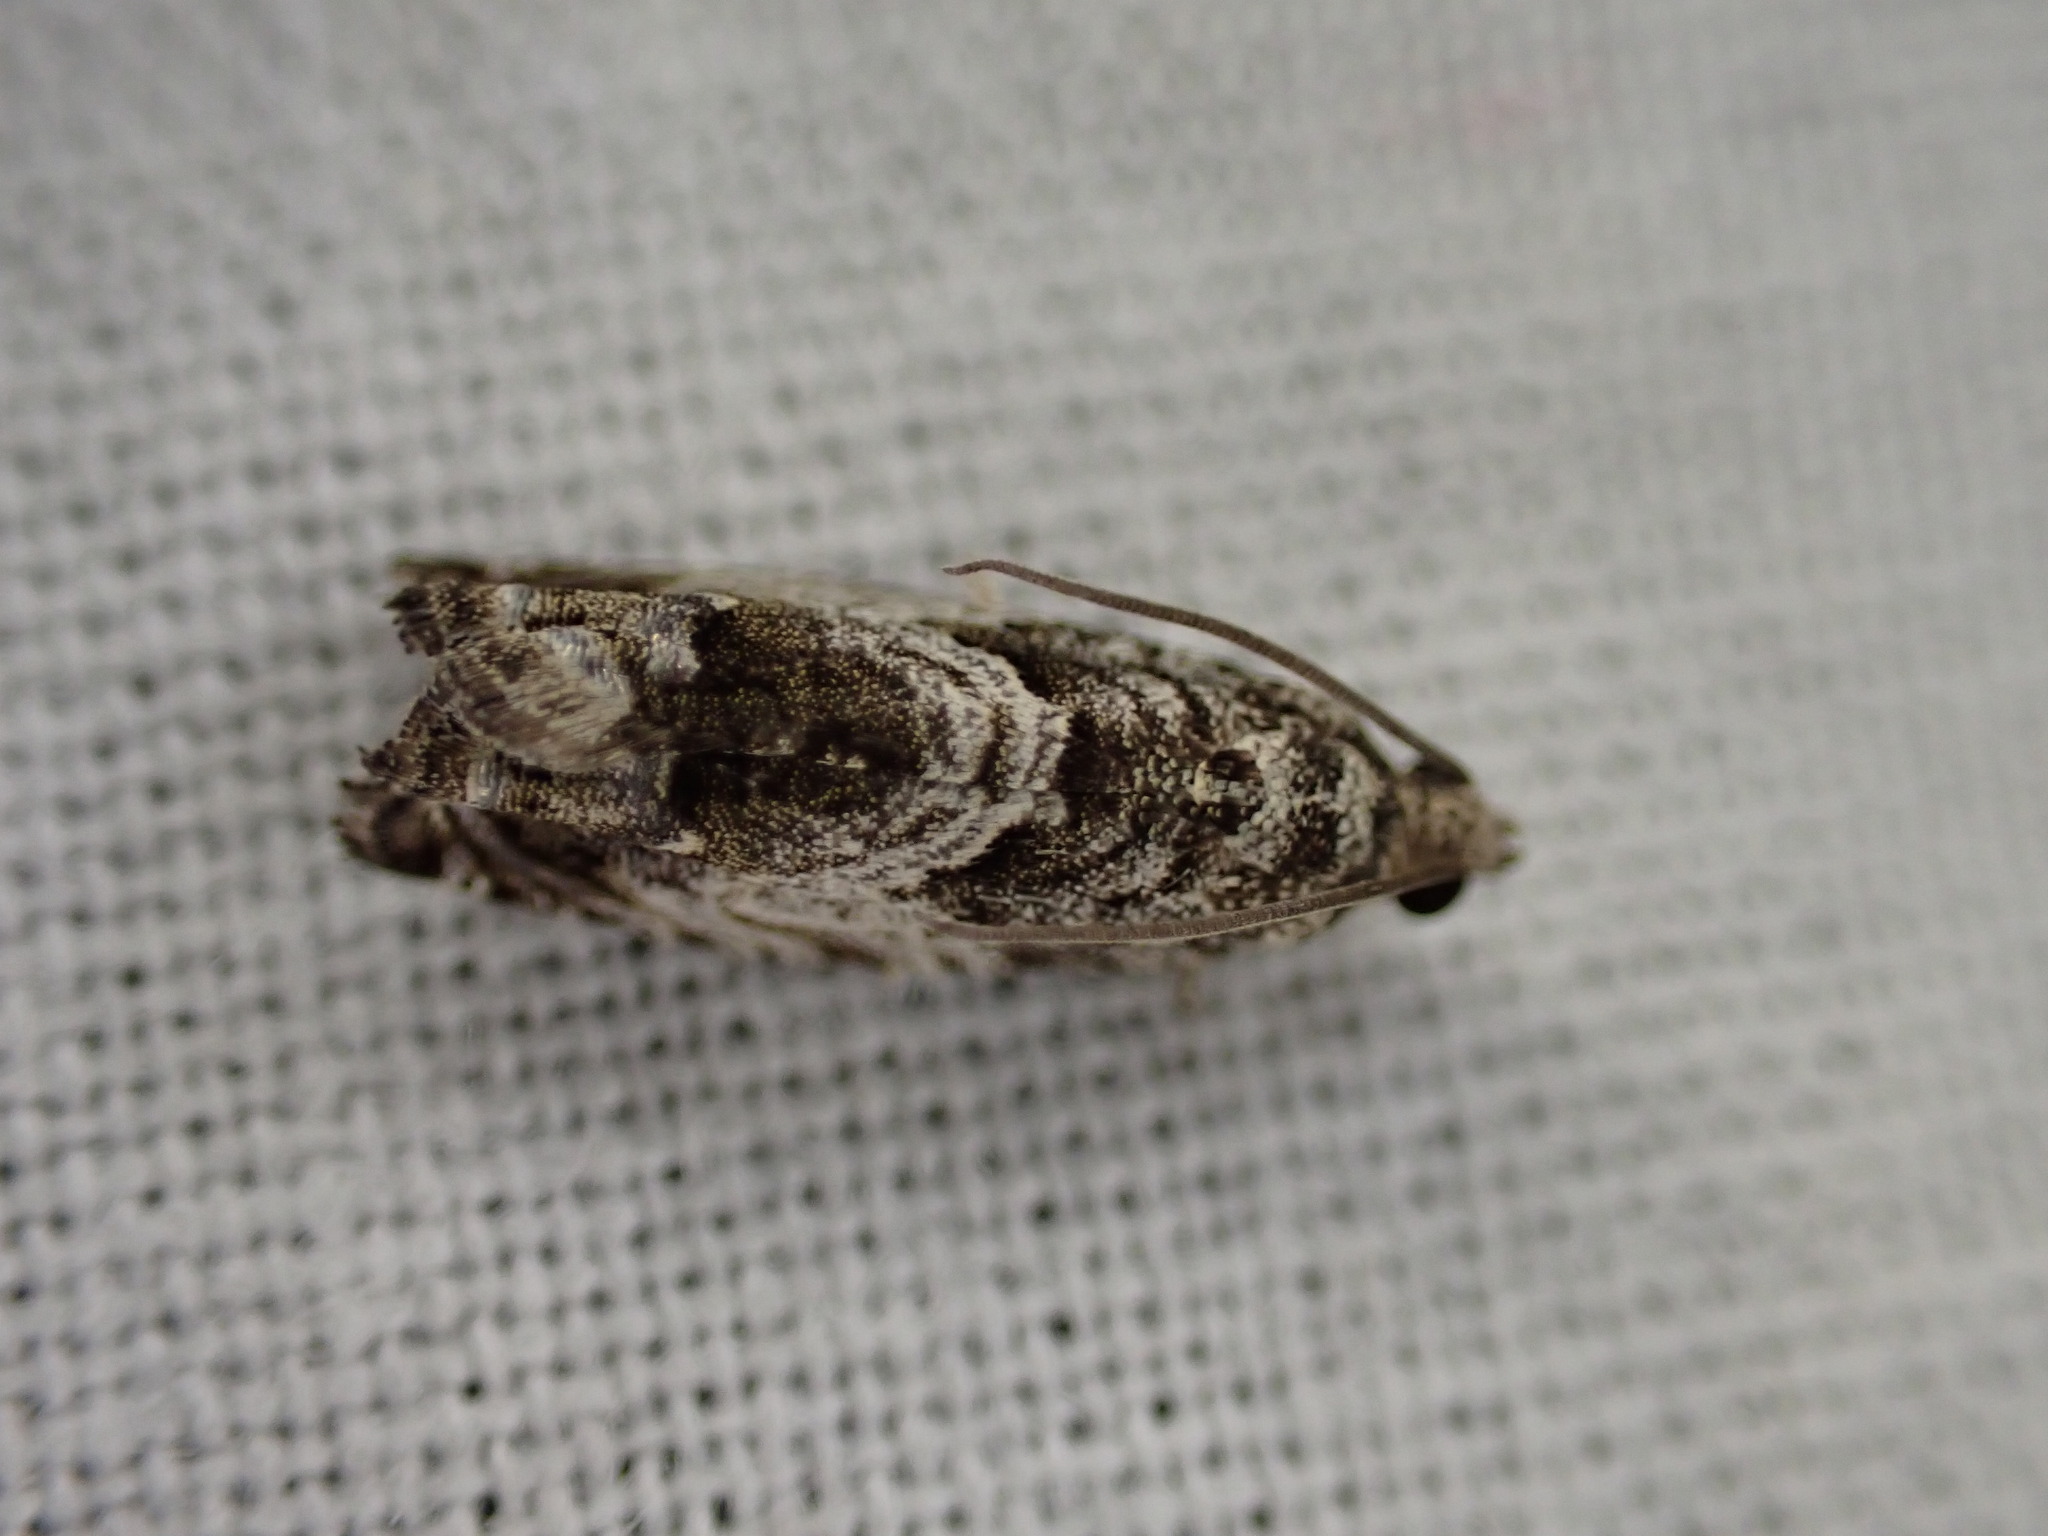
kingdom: Animalia
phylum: Arthropoda
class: Insecta
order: Lepidoptera
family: Tortricidae
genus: Cydia
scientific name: Cydia fagiglandana
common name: Large beech piercer
